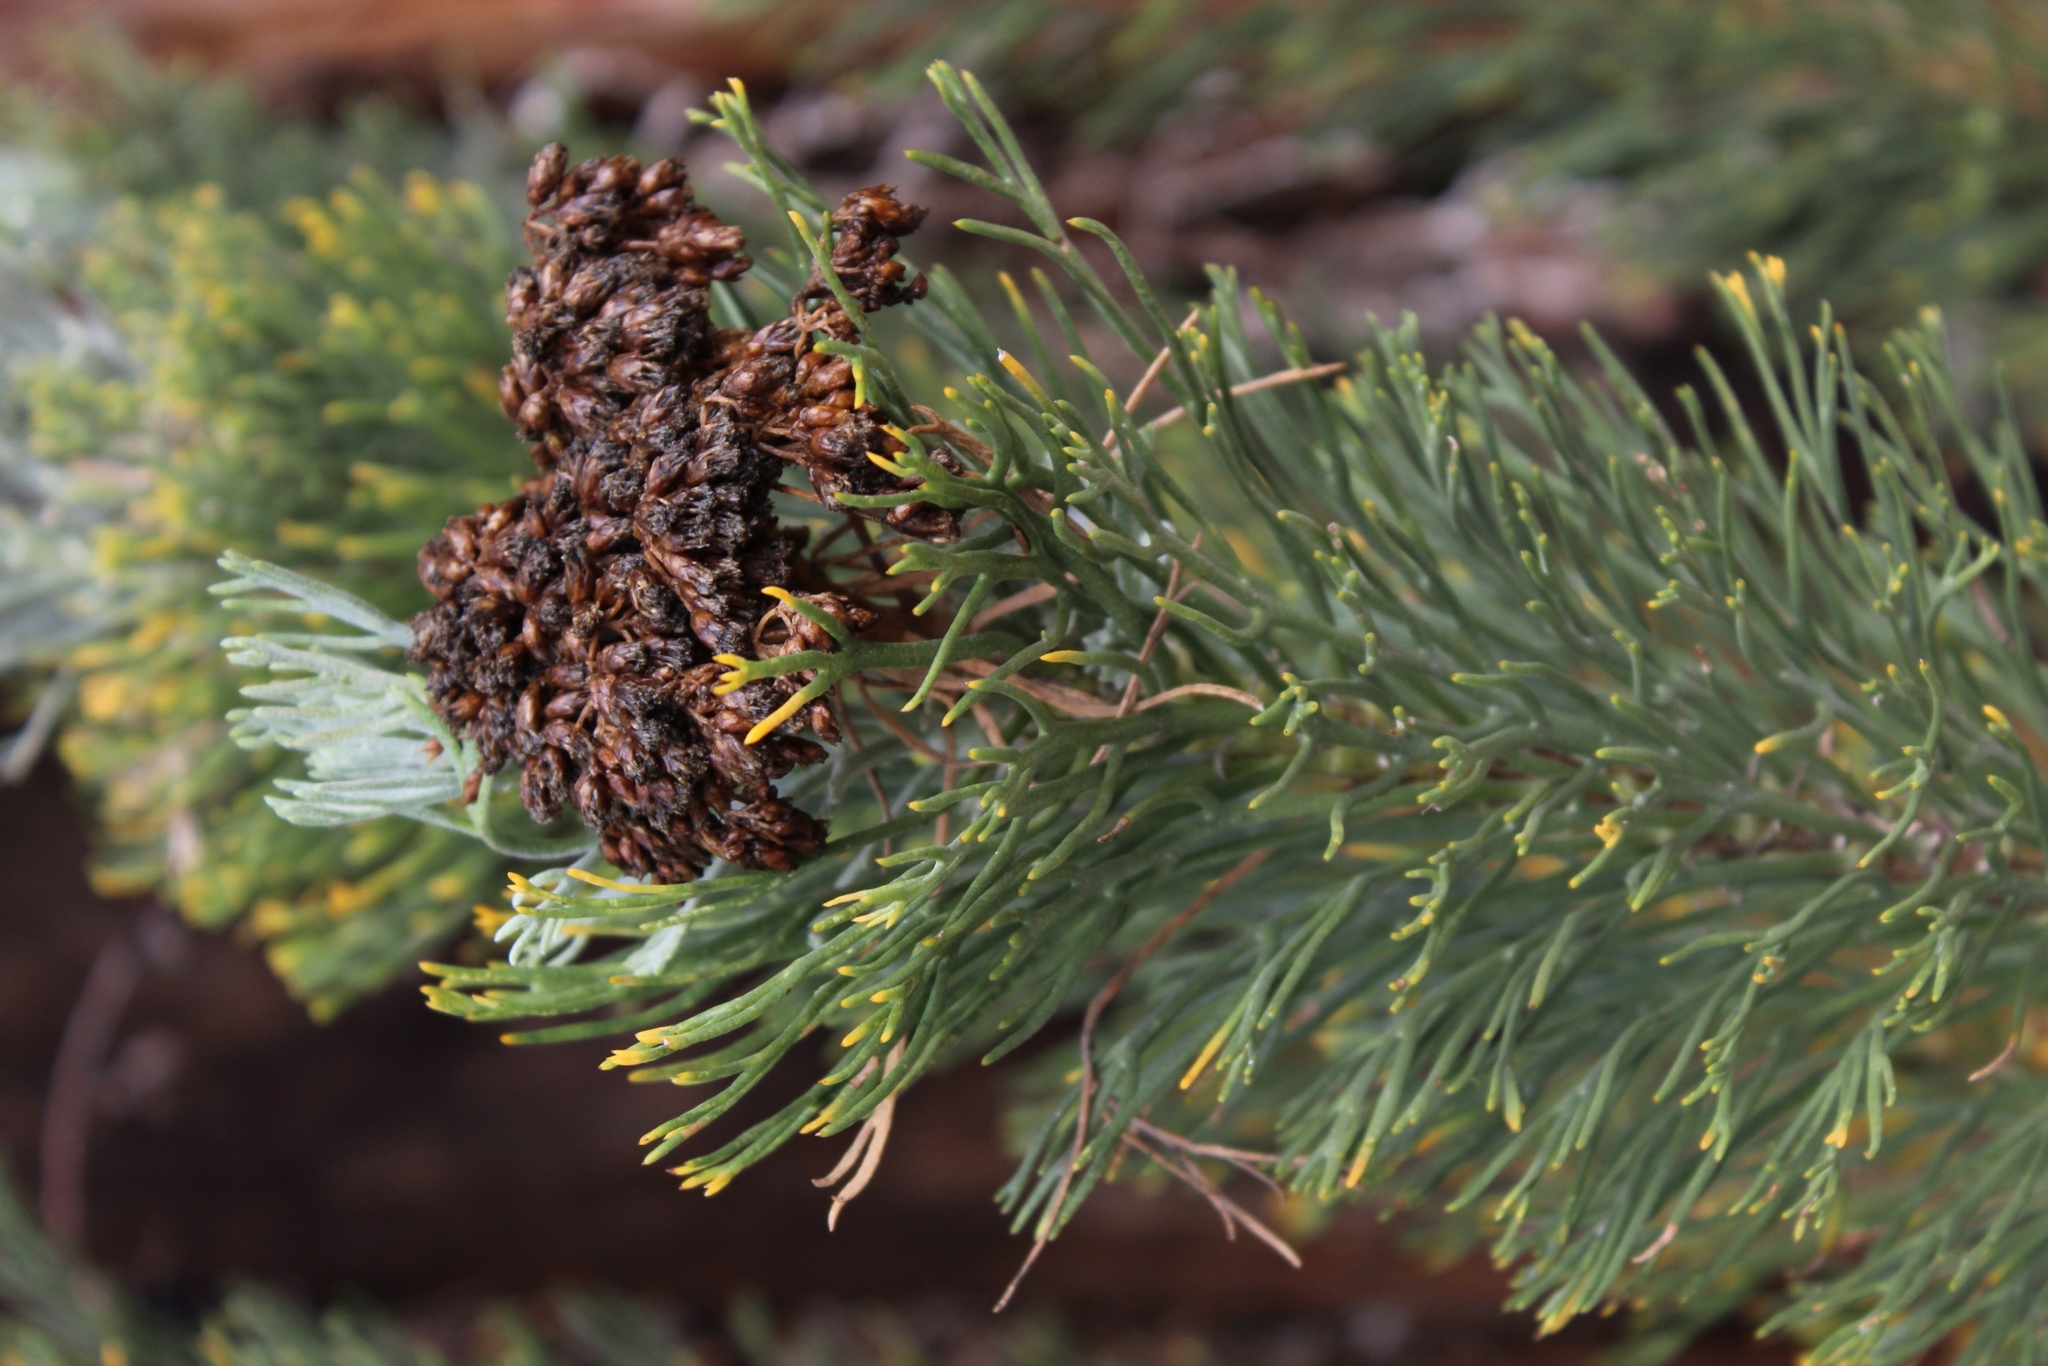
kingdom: Plantae
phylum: Tracheophyta
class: Magnoliopsida
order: Asterales
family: Asteraceae
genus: Hymenolepis
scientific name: Hymenolepis crithmifolia
